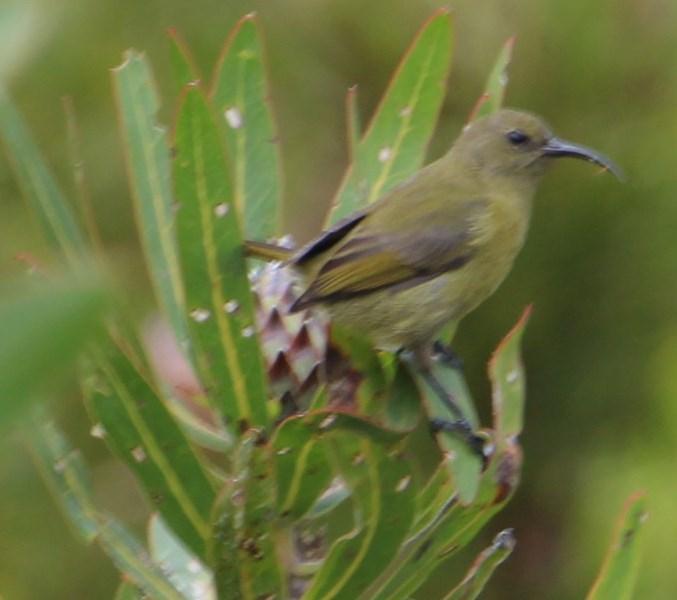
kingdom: Animalia
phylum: Chordata
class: Aves
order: Passeriformes
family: Nectariniidae
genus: Anthobaphes
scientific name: Anthobaphes violacea
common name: Orange-breasted sunbird
